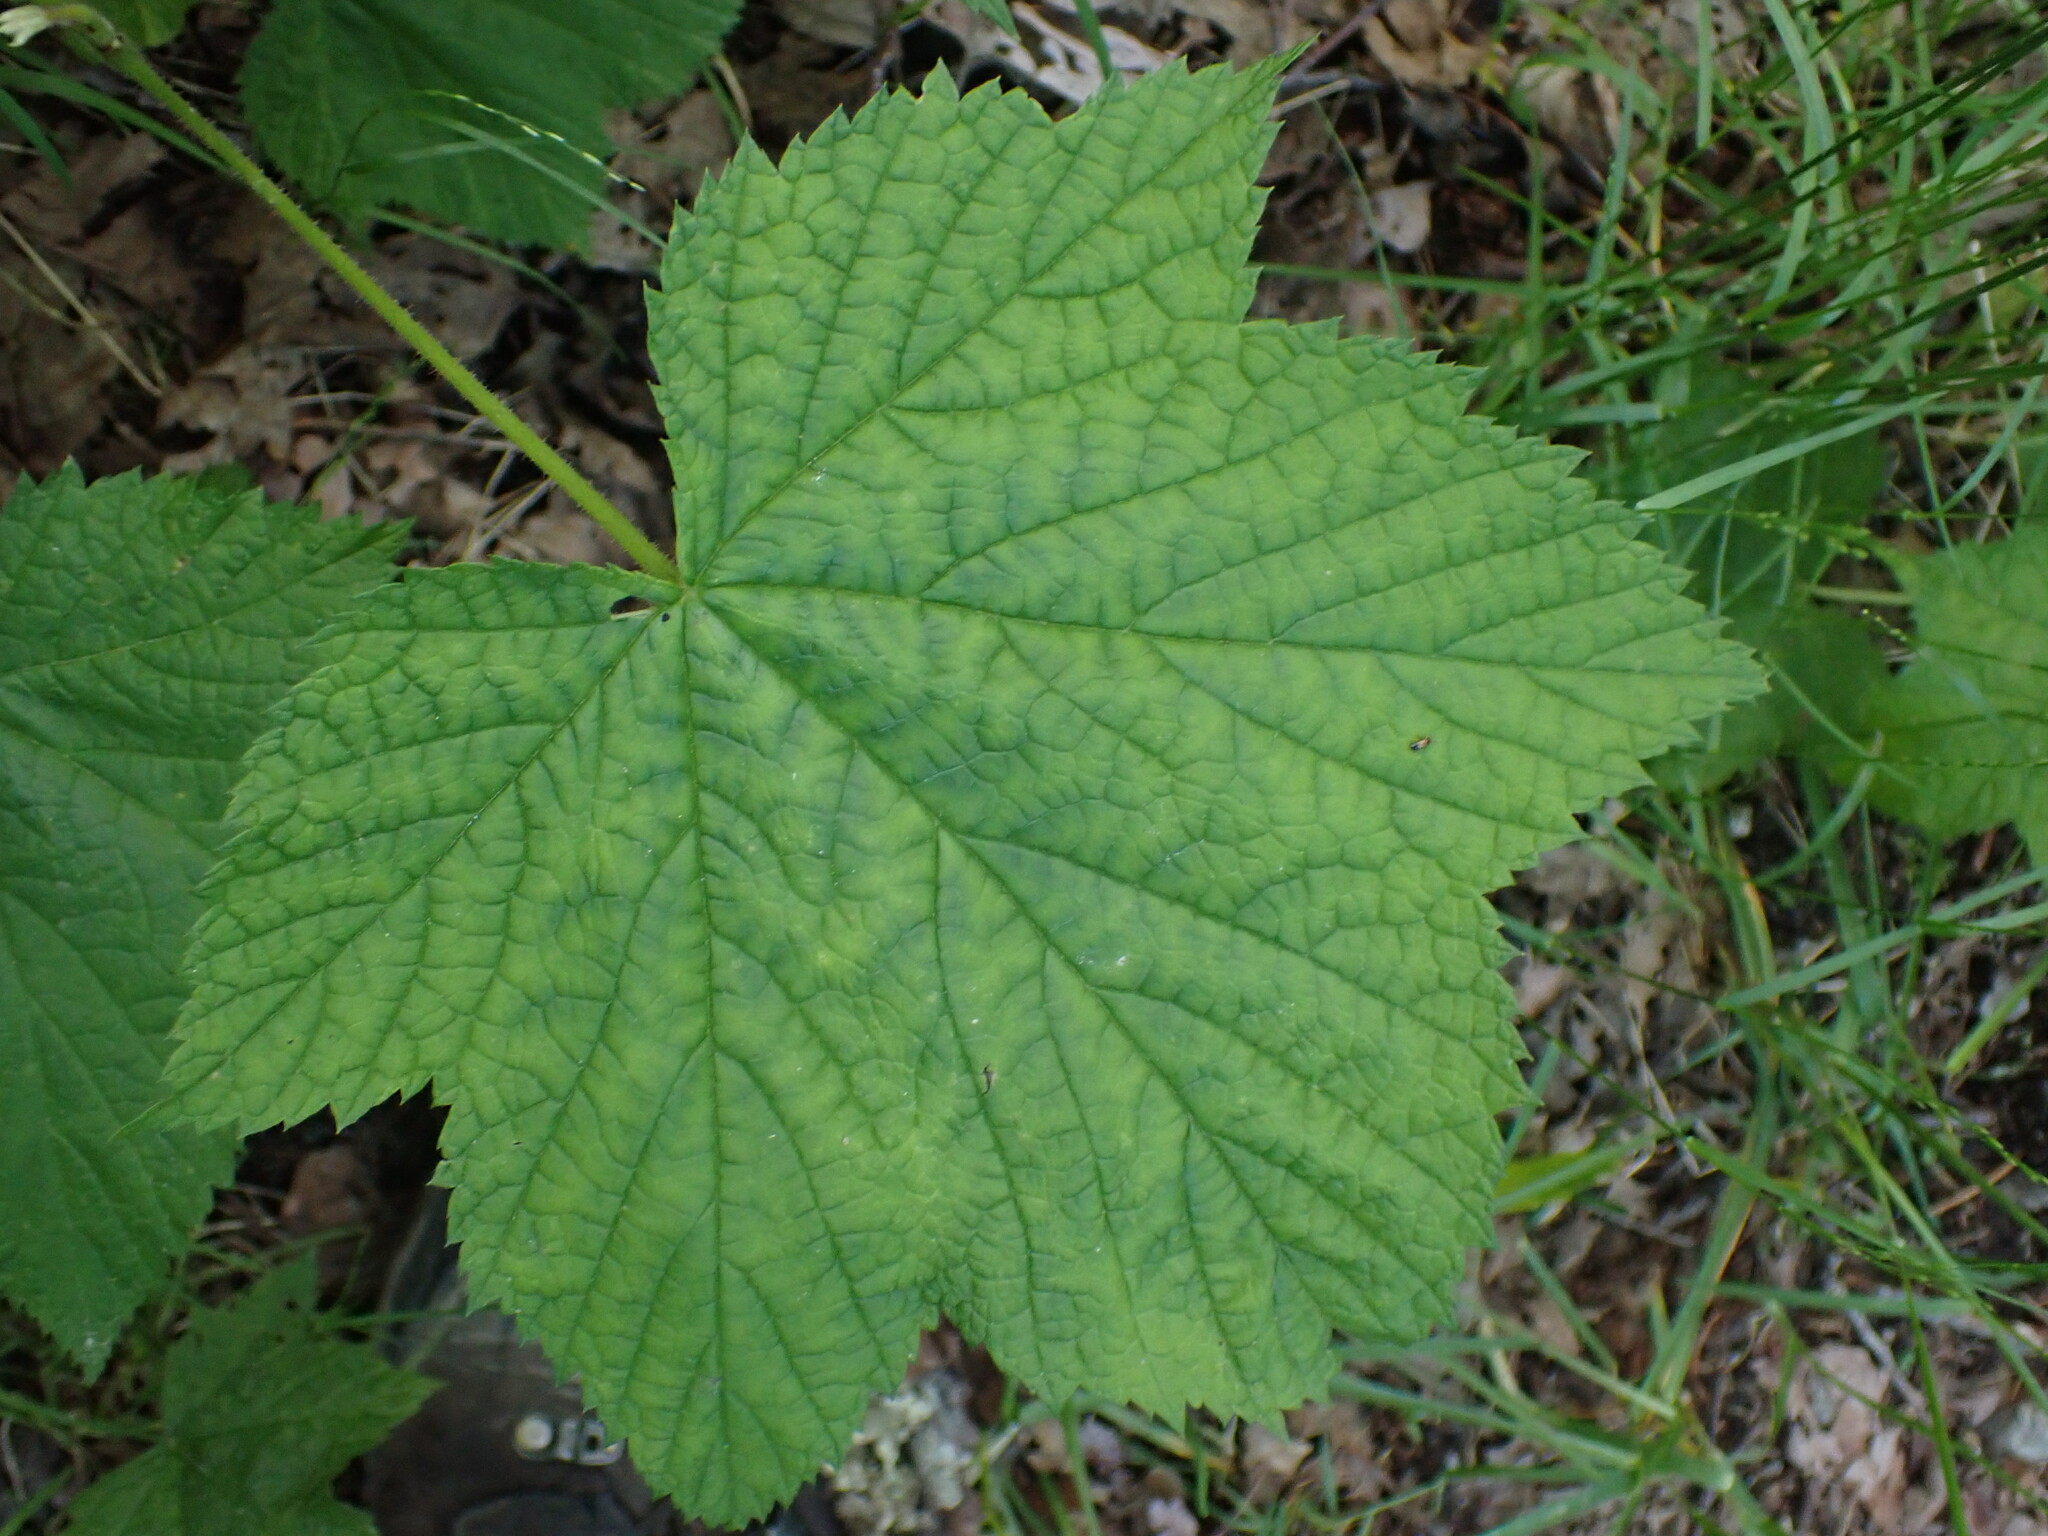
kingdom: Plantae
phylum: Tracheophyta
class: Magnoliopsida
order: Rosales
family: Rosaceae
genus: Rubus
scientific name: Rubus parviflorus
